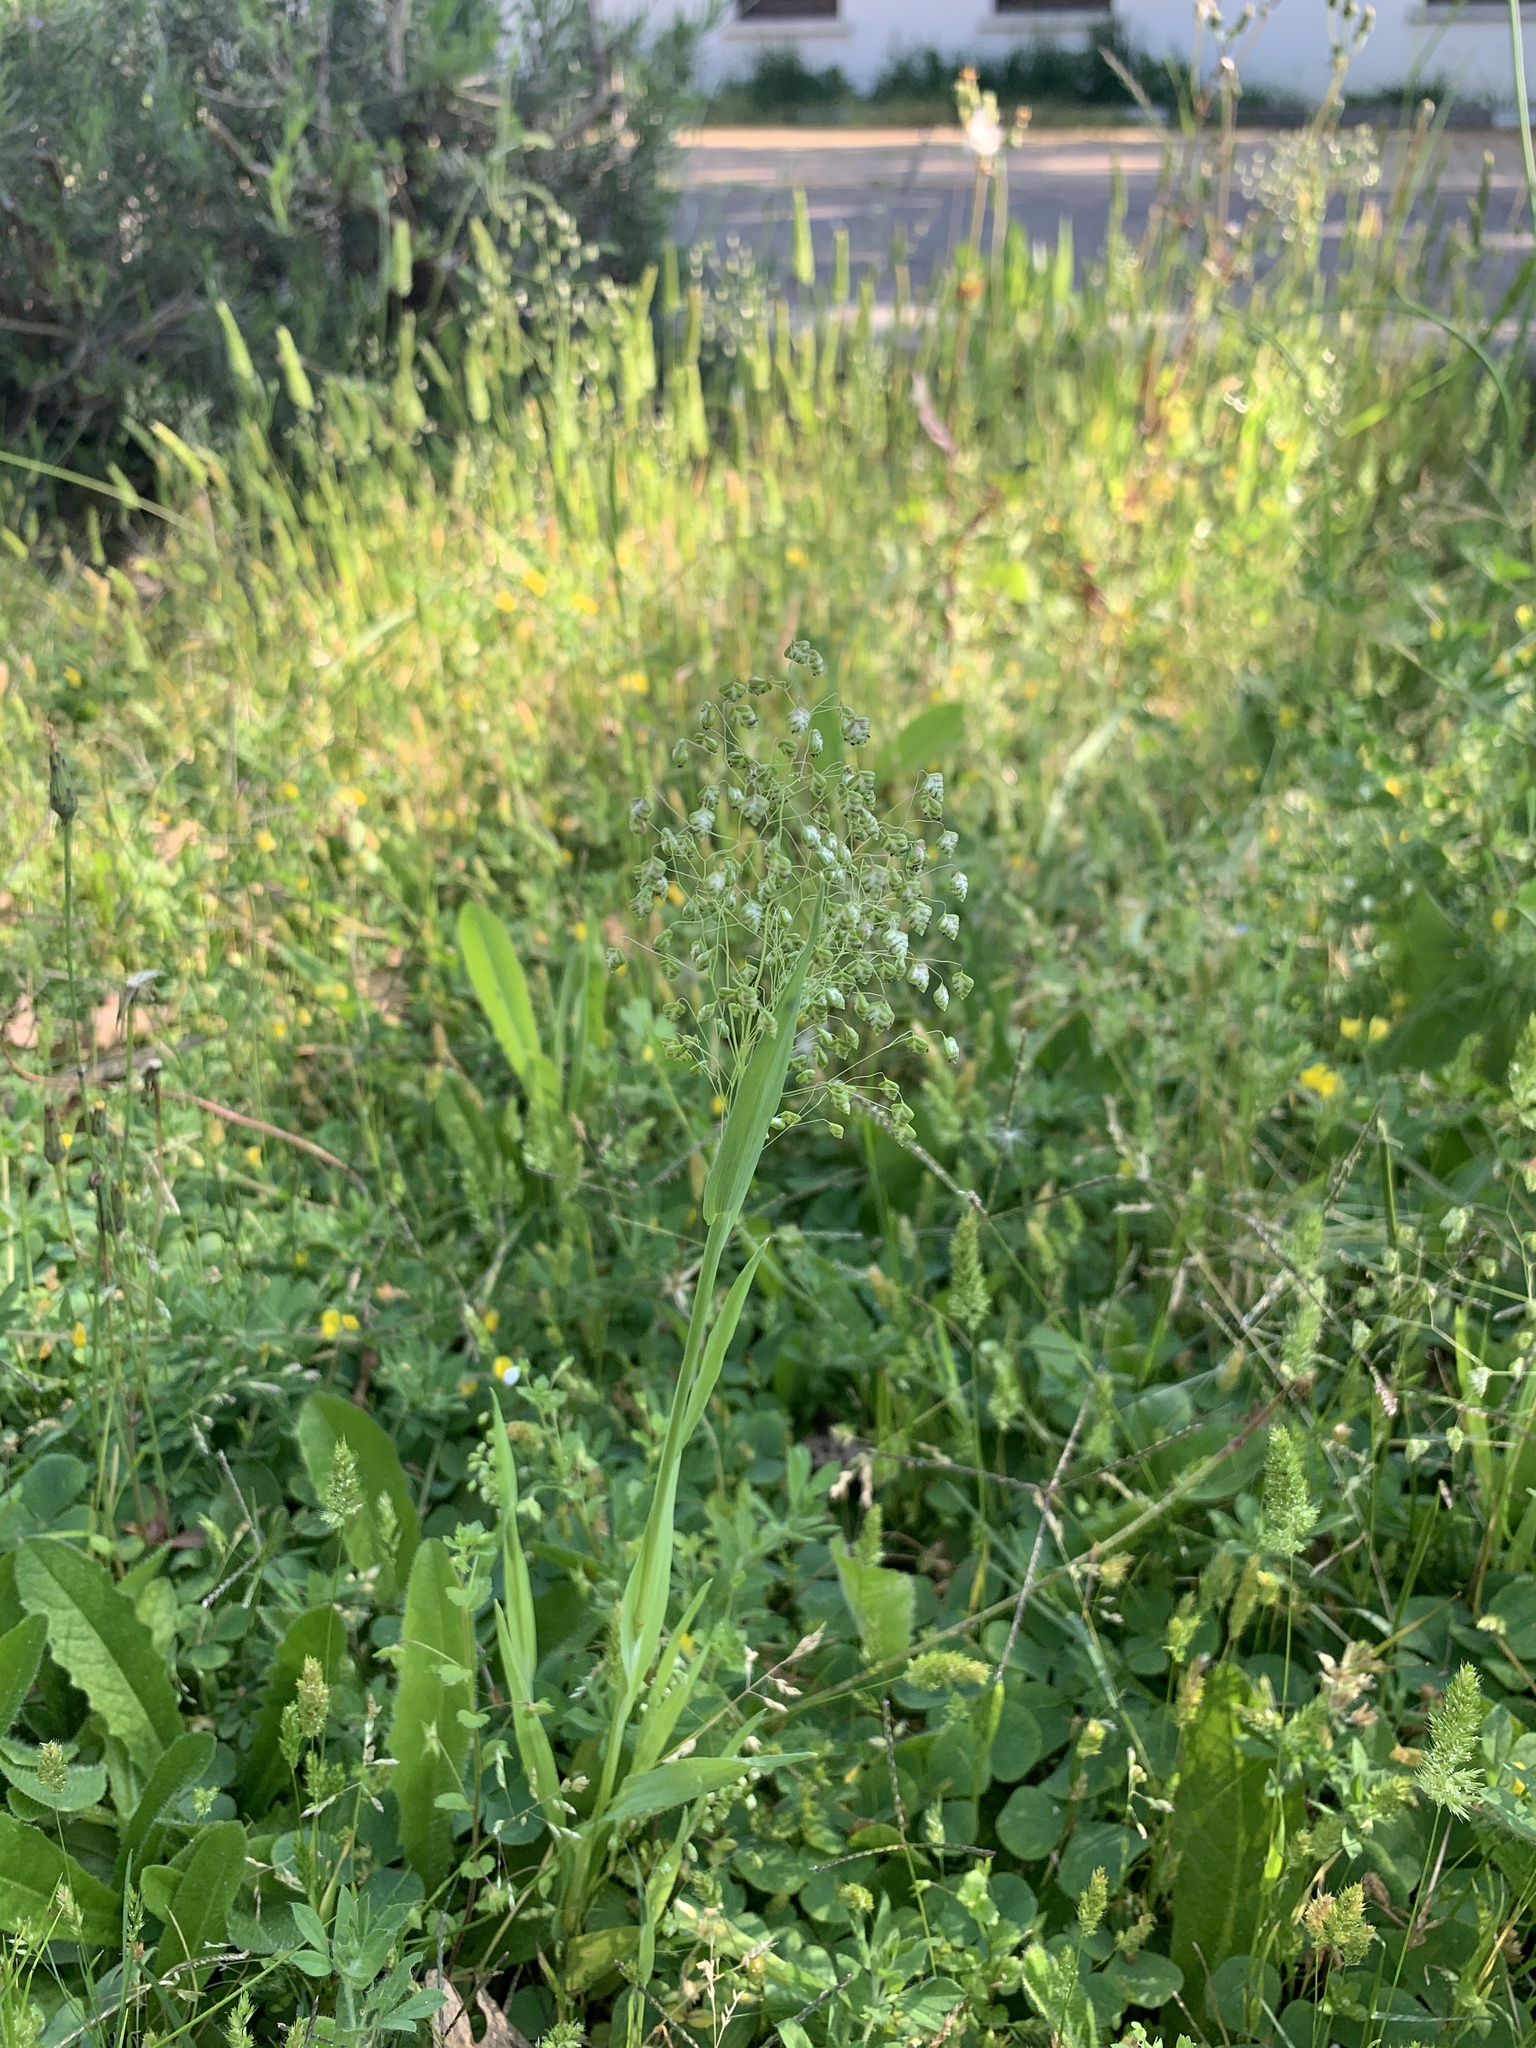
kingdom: Plantae
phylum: Tracheophyta
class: Liliopsida
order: Poales
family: Poaceae
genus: Briza
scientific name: Briza minor
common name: Lesser quaking-grass
